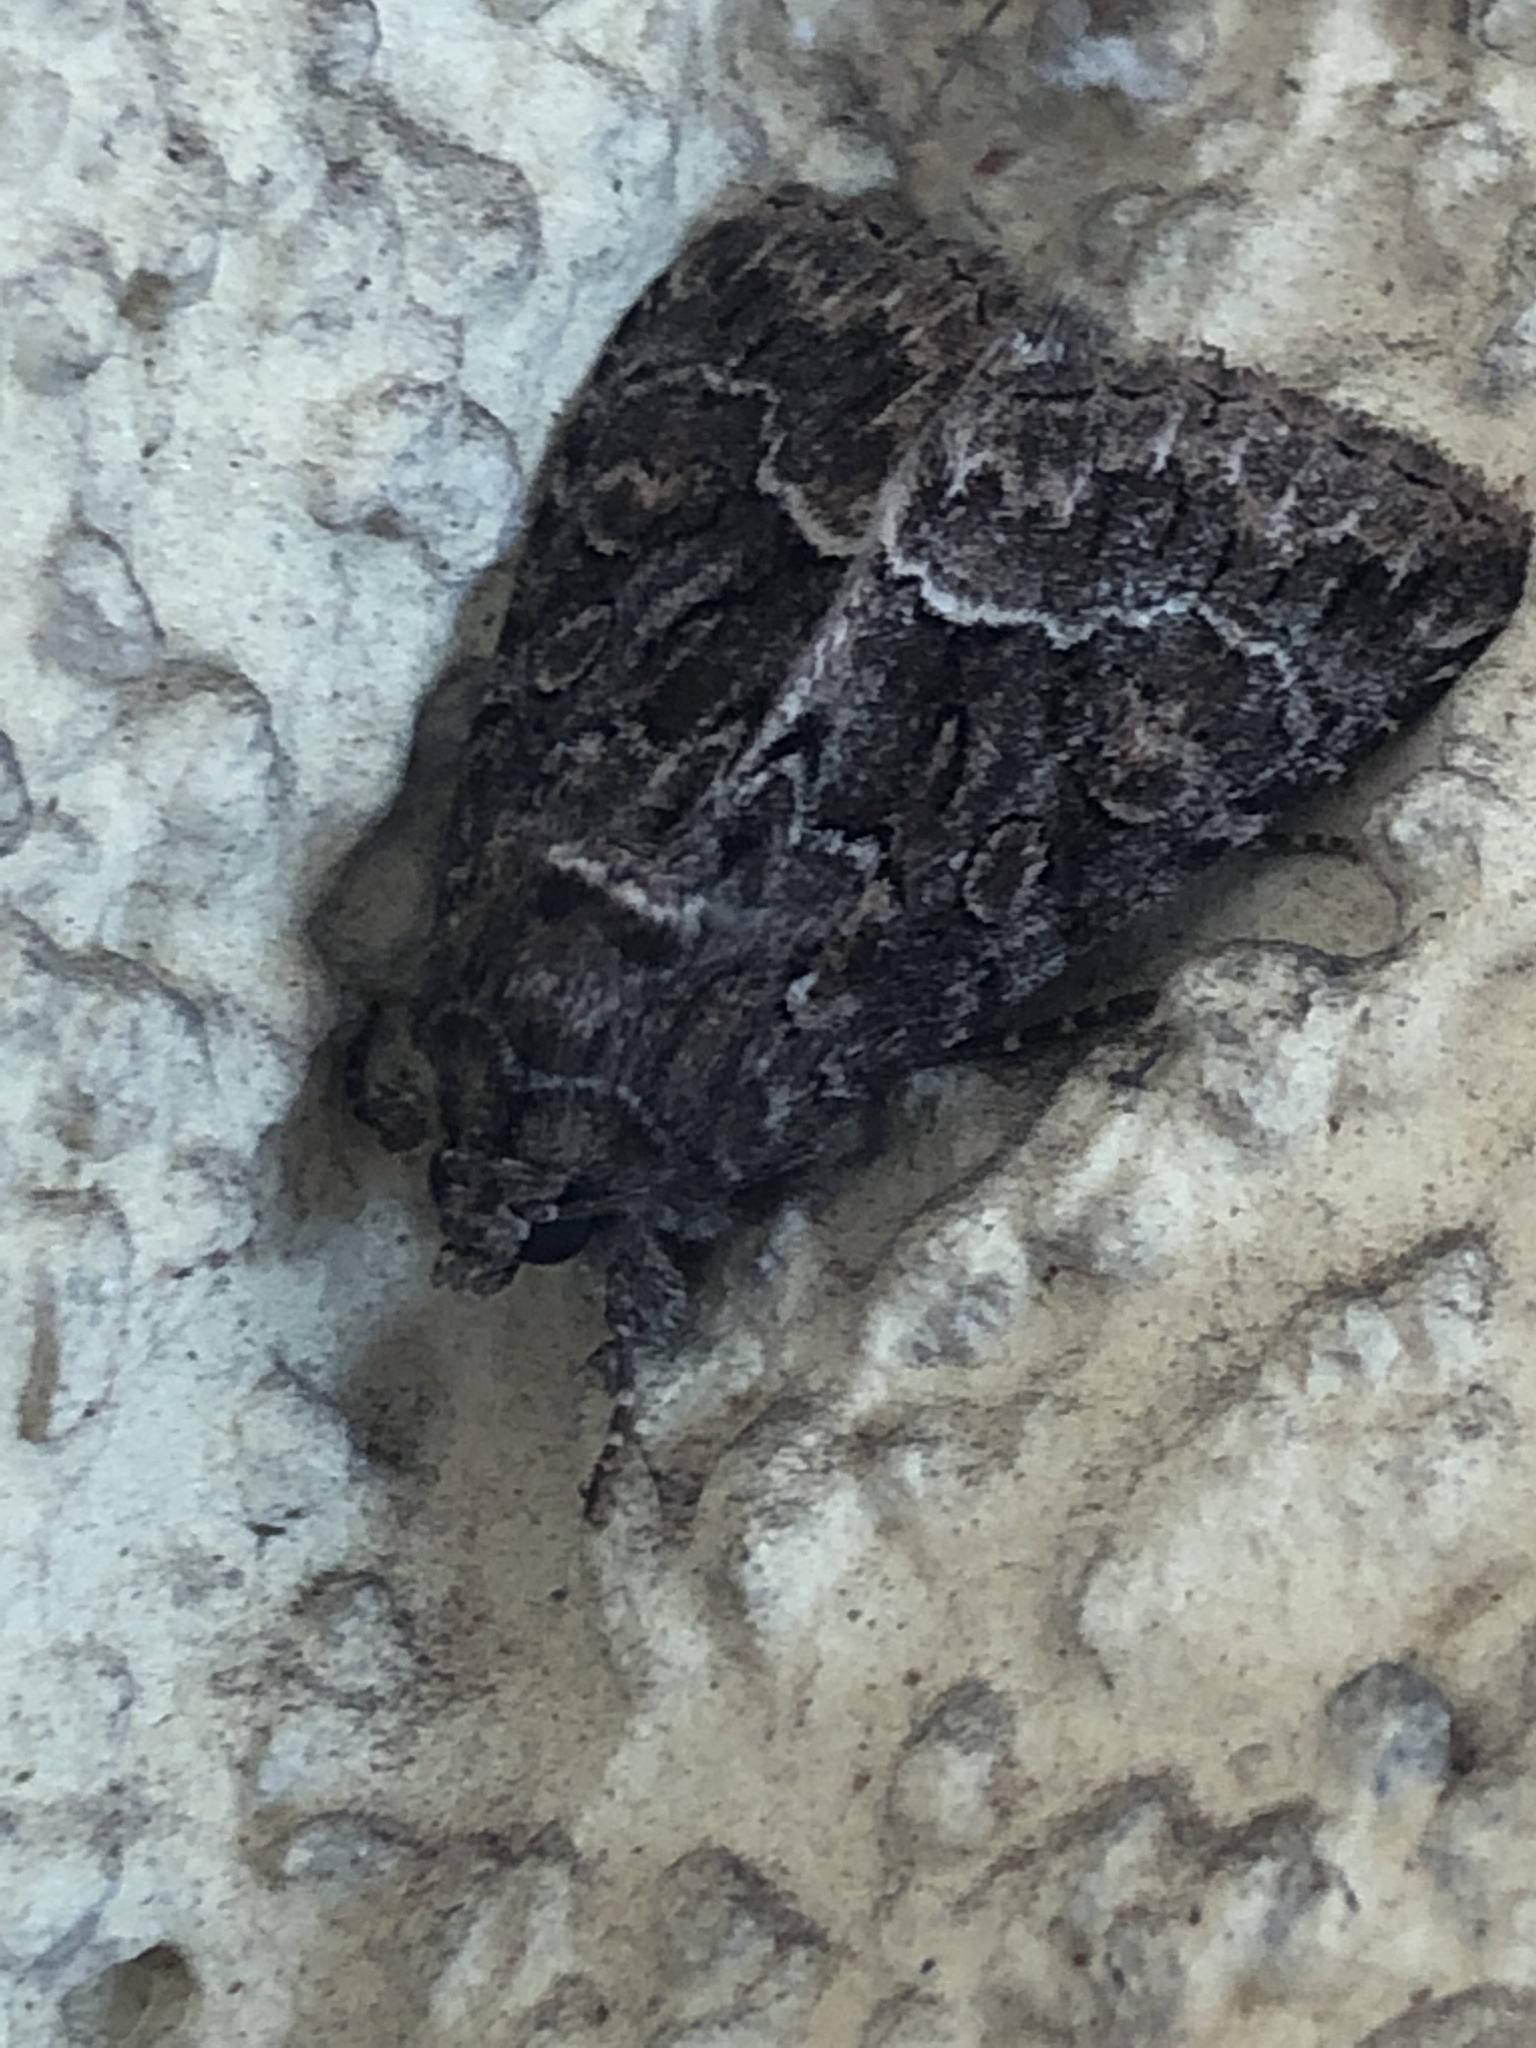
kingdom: Animalia
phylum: Arthropoda
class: Insecta
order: Lepidoptera
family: Noctuidae
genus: Thalpophila
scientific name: Thalpophila matura
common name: Straw underwing
